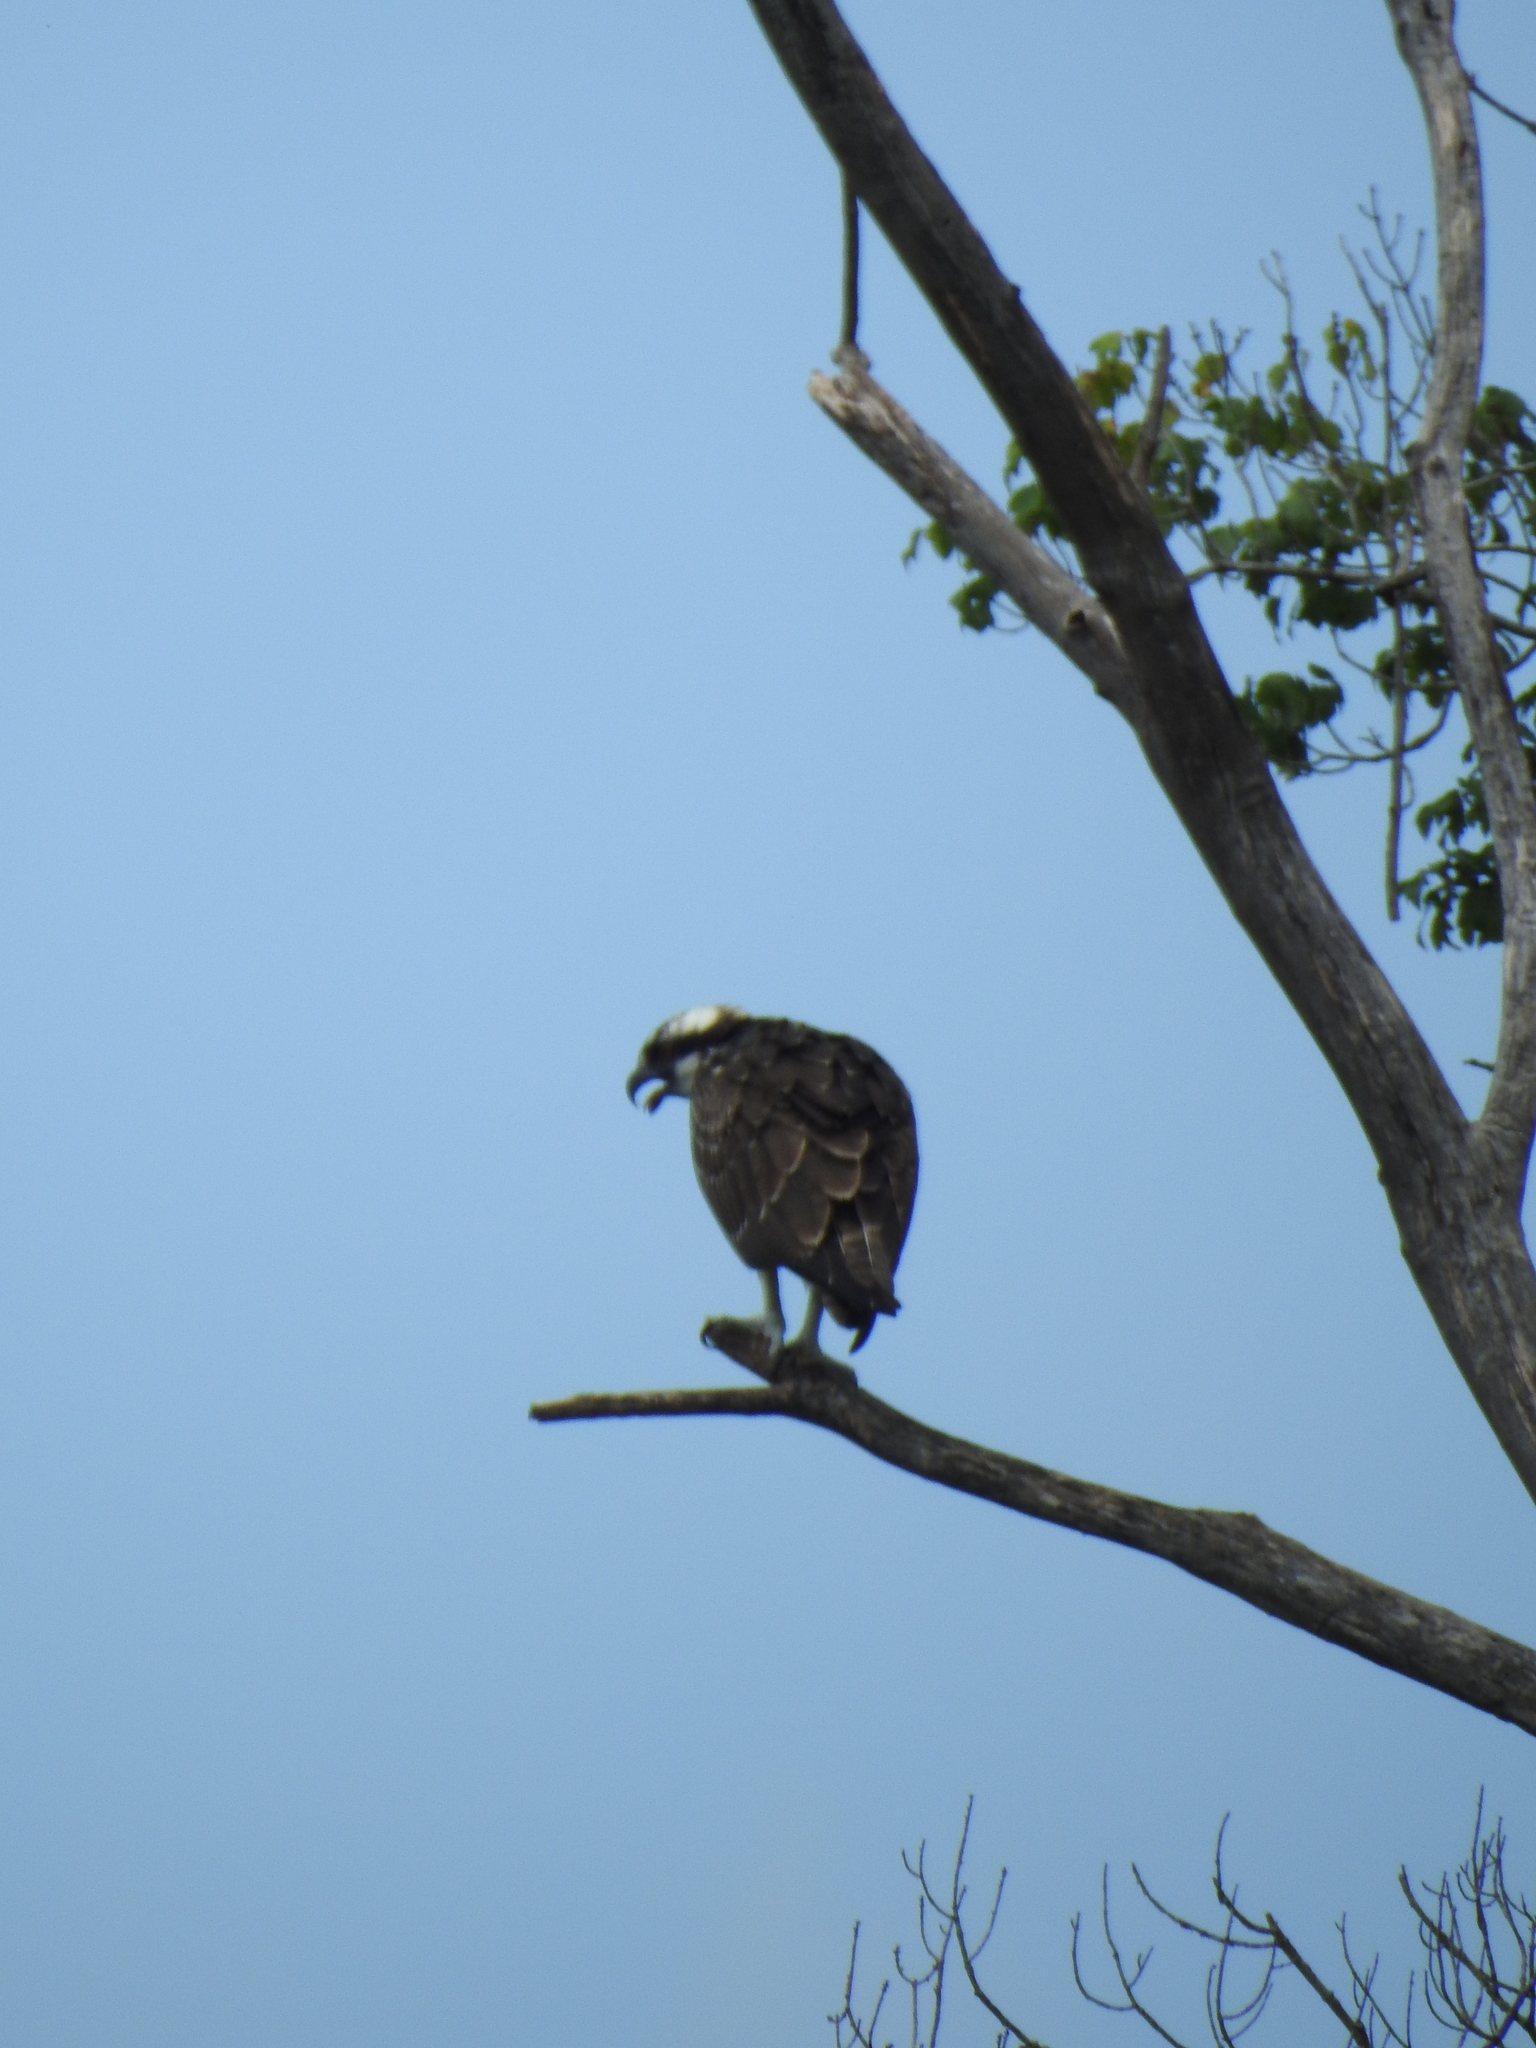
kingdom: Animalia
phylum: Chordata
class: Aves
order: Accipitriformes
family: Pandionidae
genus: Pandion
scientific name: Pandion haliaetus
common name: Osprey
